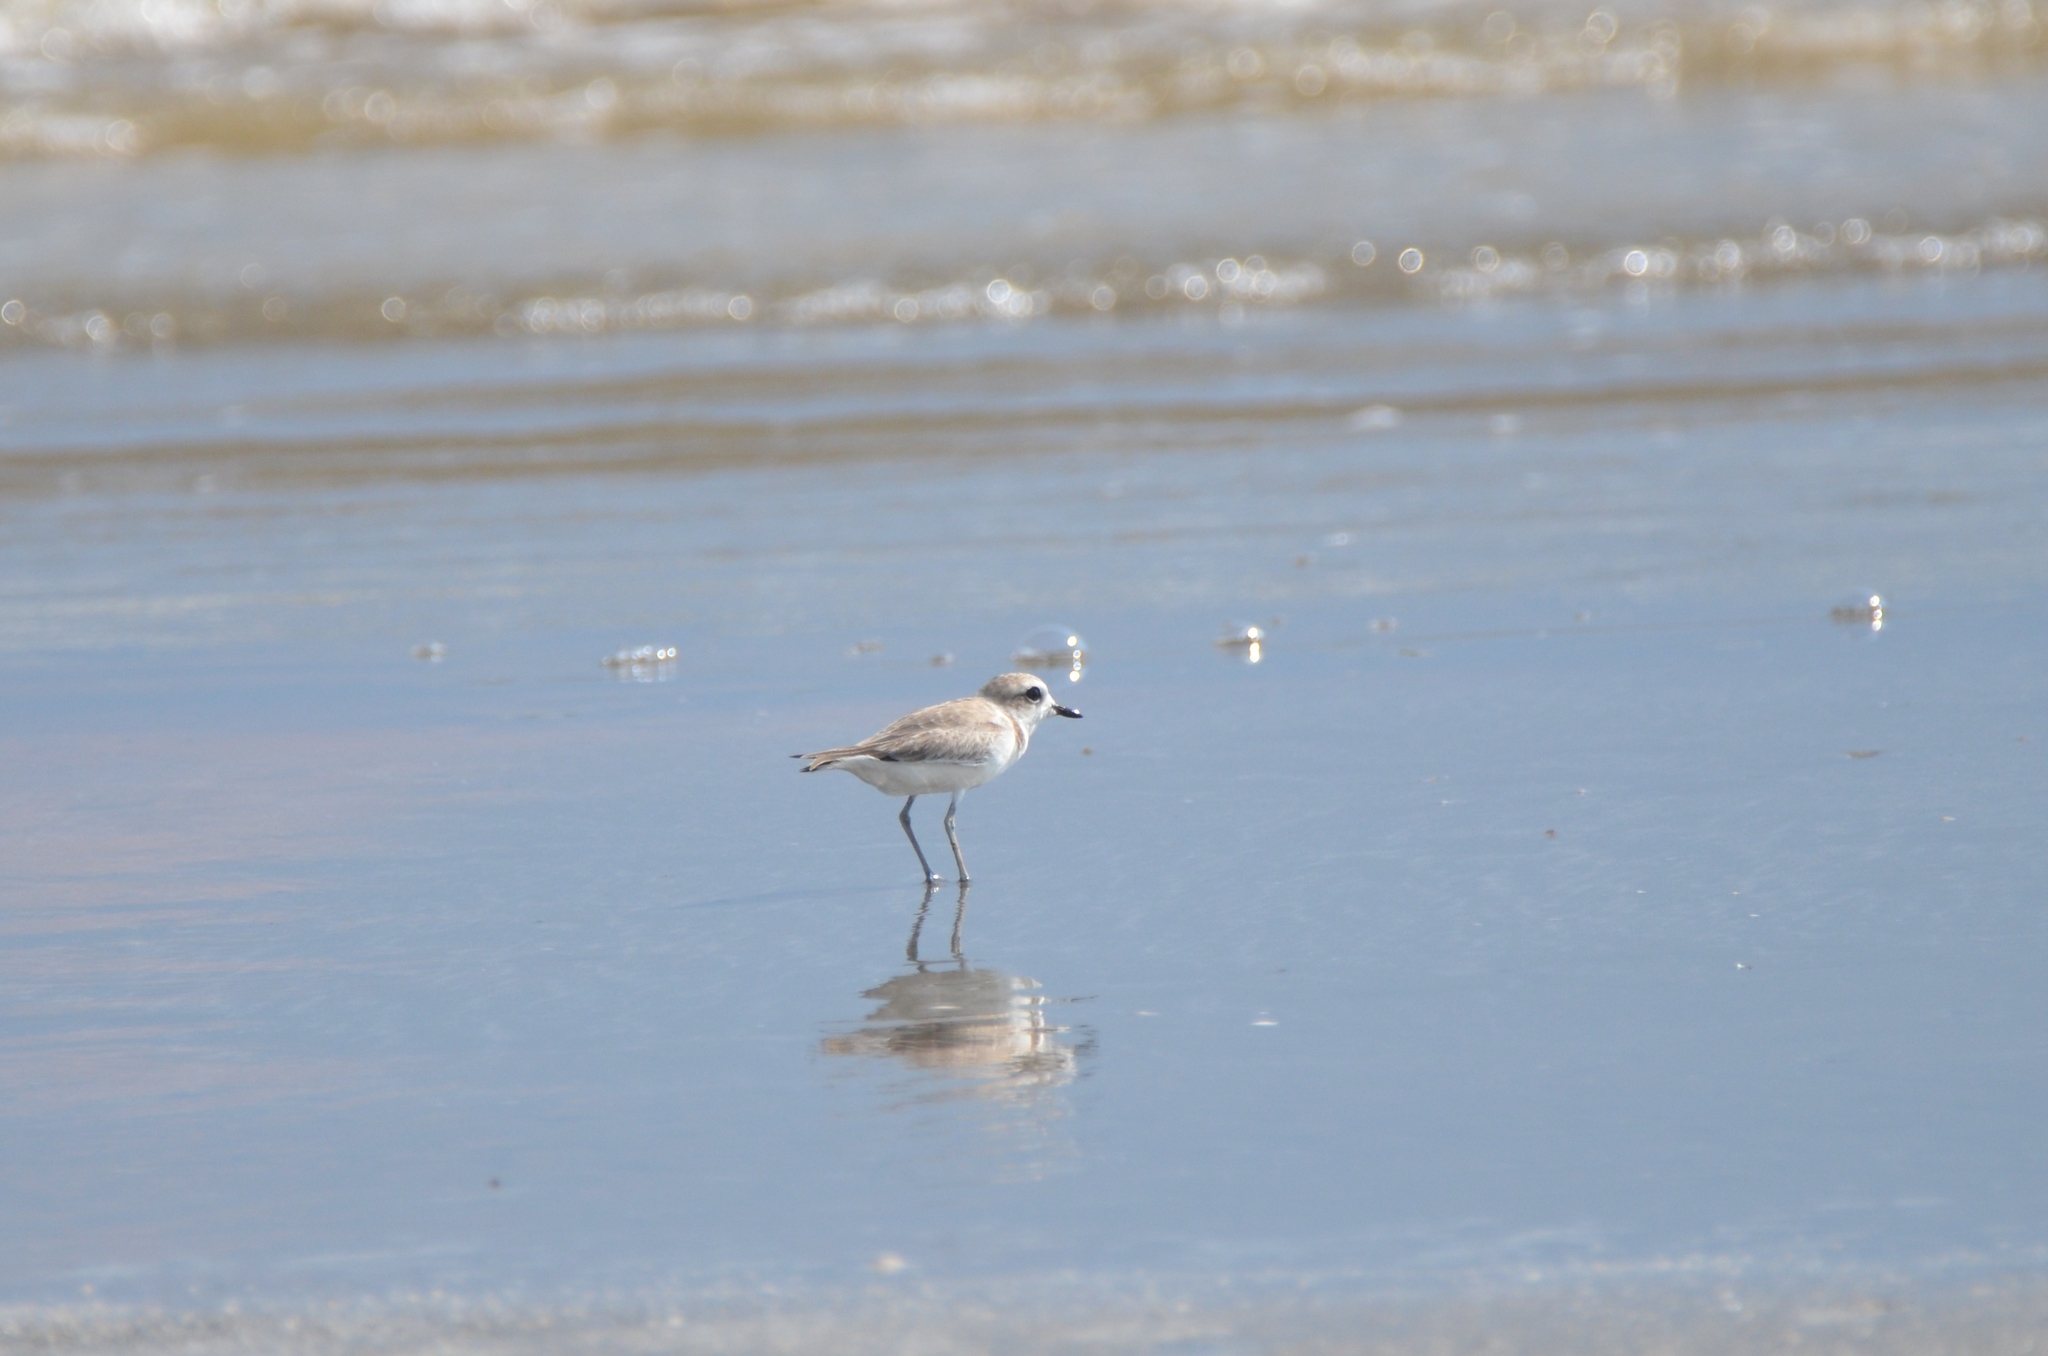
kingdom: Animalia
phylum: Chordata
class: Aves
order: Charadriiformes
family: Charadriidae
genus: Anarhynchus
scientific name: Anarhynchus
